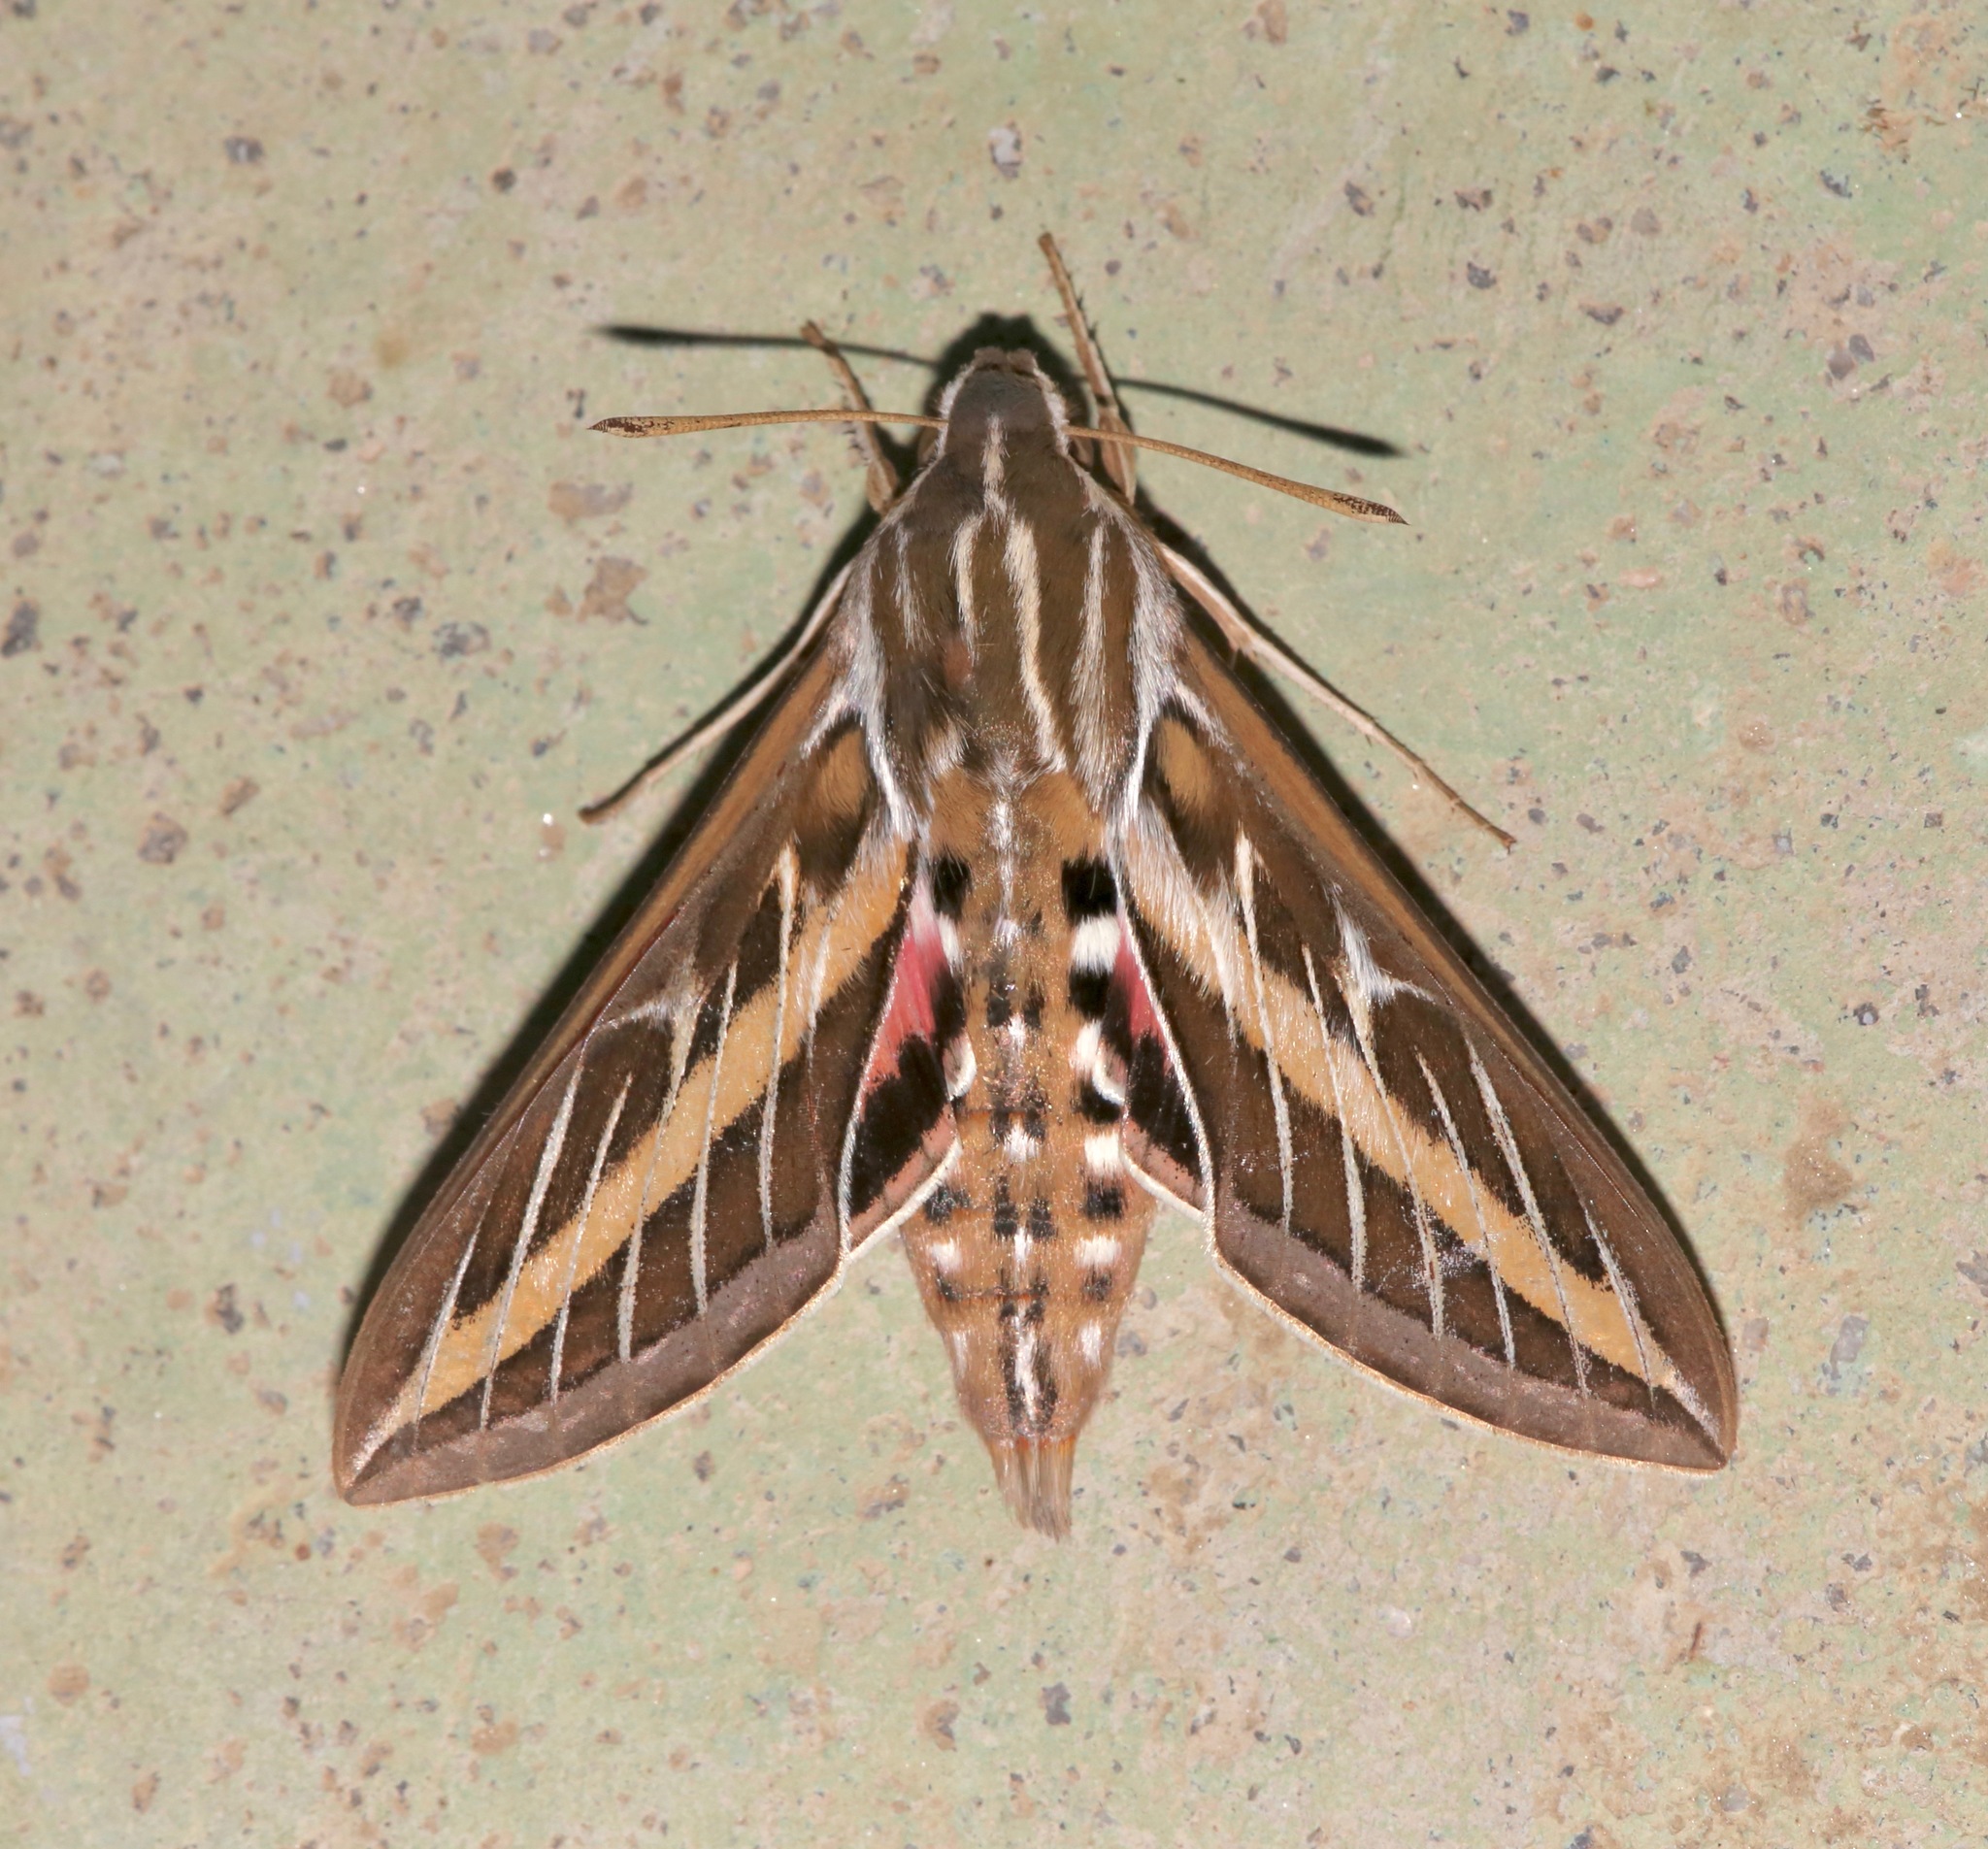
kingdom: Animalia
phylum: Arthropoda
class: Insecta
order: Lepidoptera
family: Sphingidae
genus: Hyles
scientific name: Hyles lineata
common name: White-lined sphinx
